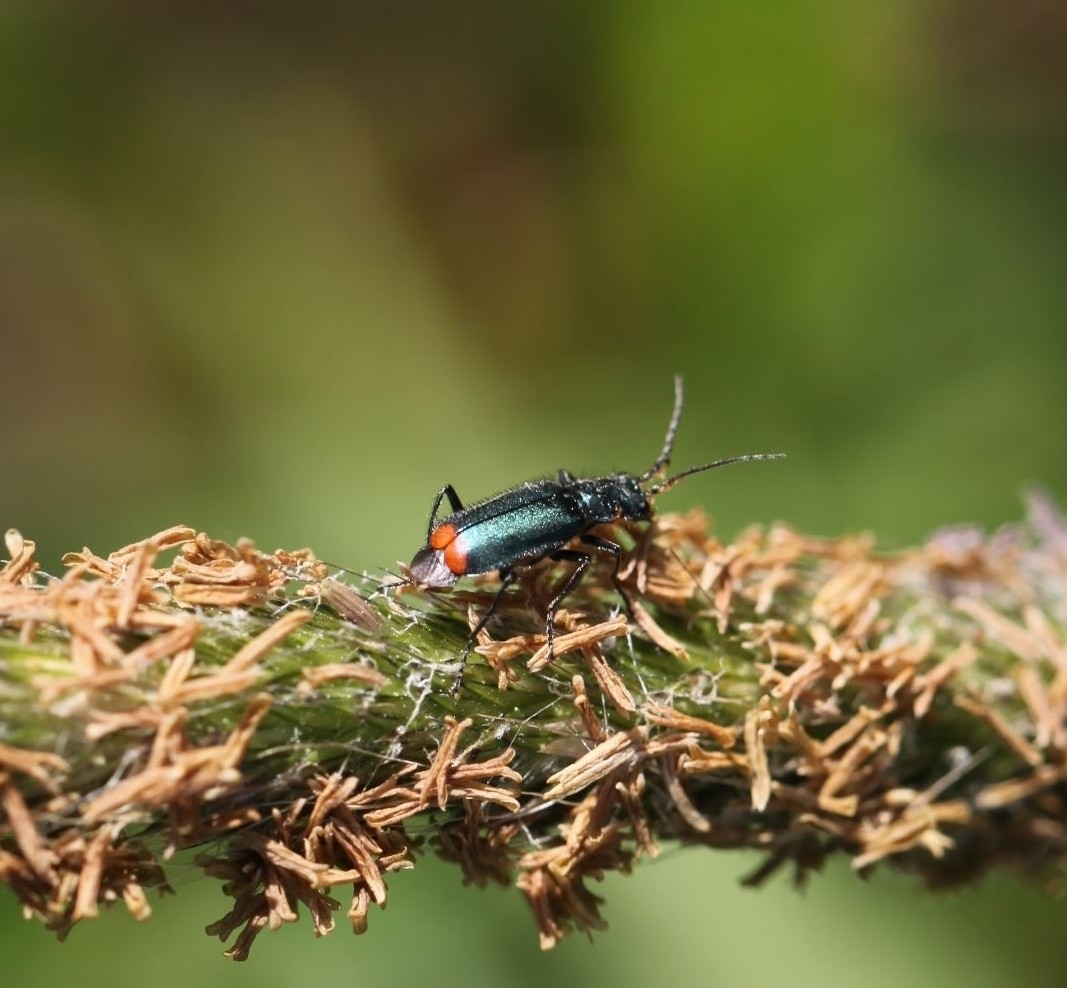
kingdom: Animalia
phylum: Arthropoda
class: Insecta
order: Coleoptera
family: Melyridae
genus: Malachius
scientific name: Malachius bipustulatus
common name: Malachite beetle
